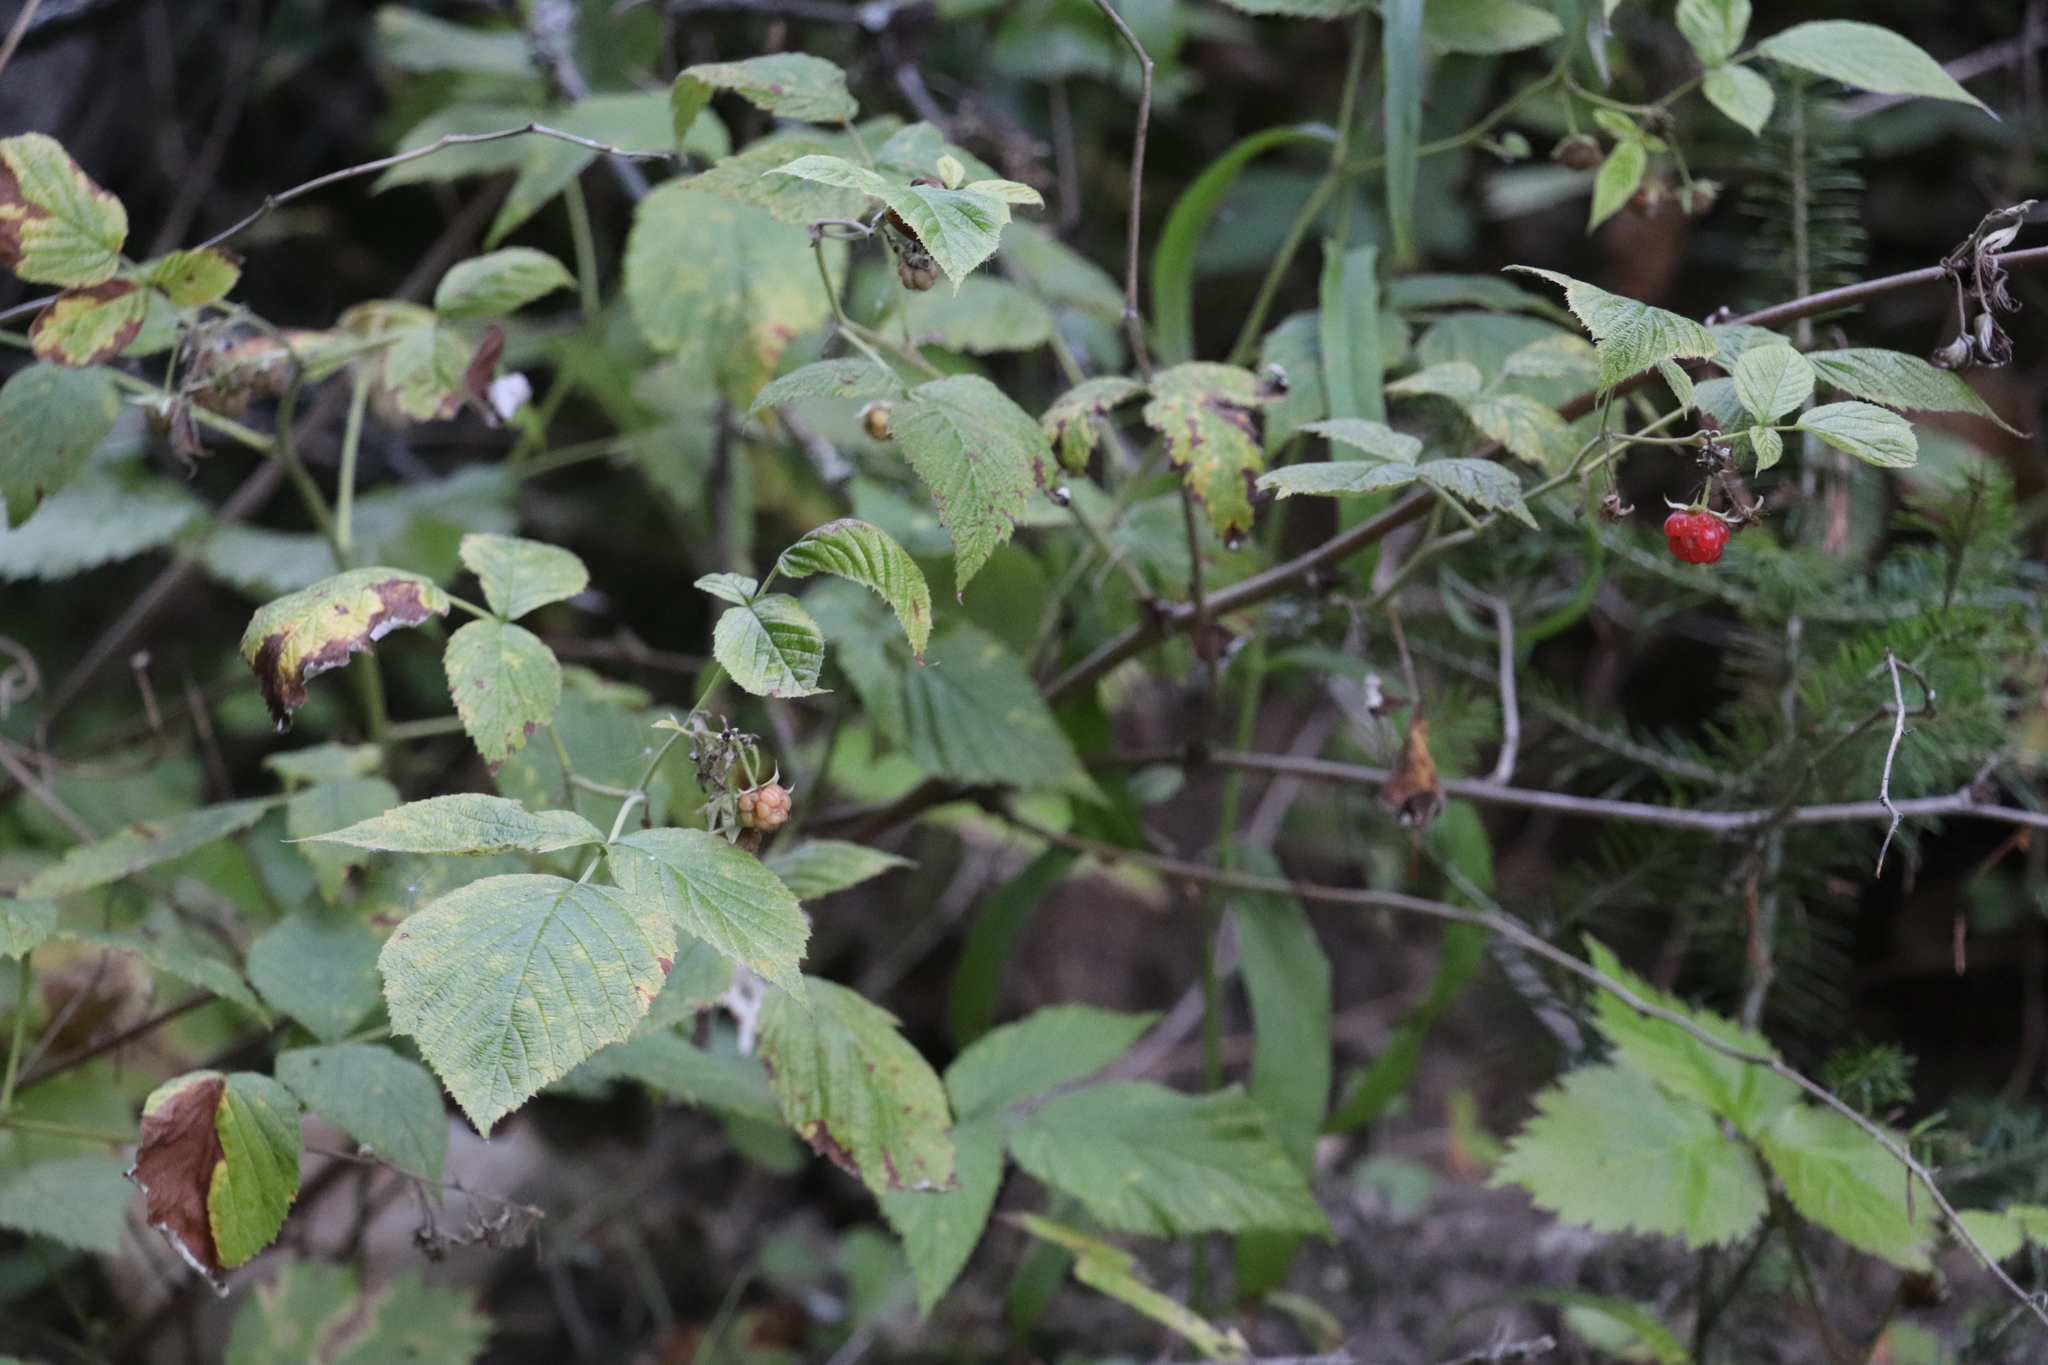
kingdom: Plantae
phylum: Tracheophyta
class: Magnoliopsida
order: Rosales
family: Rosaceae
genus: Rubus
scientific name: Rubus sachalinensis
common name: Red raspberry
